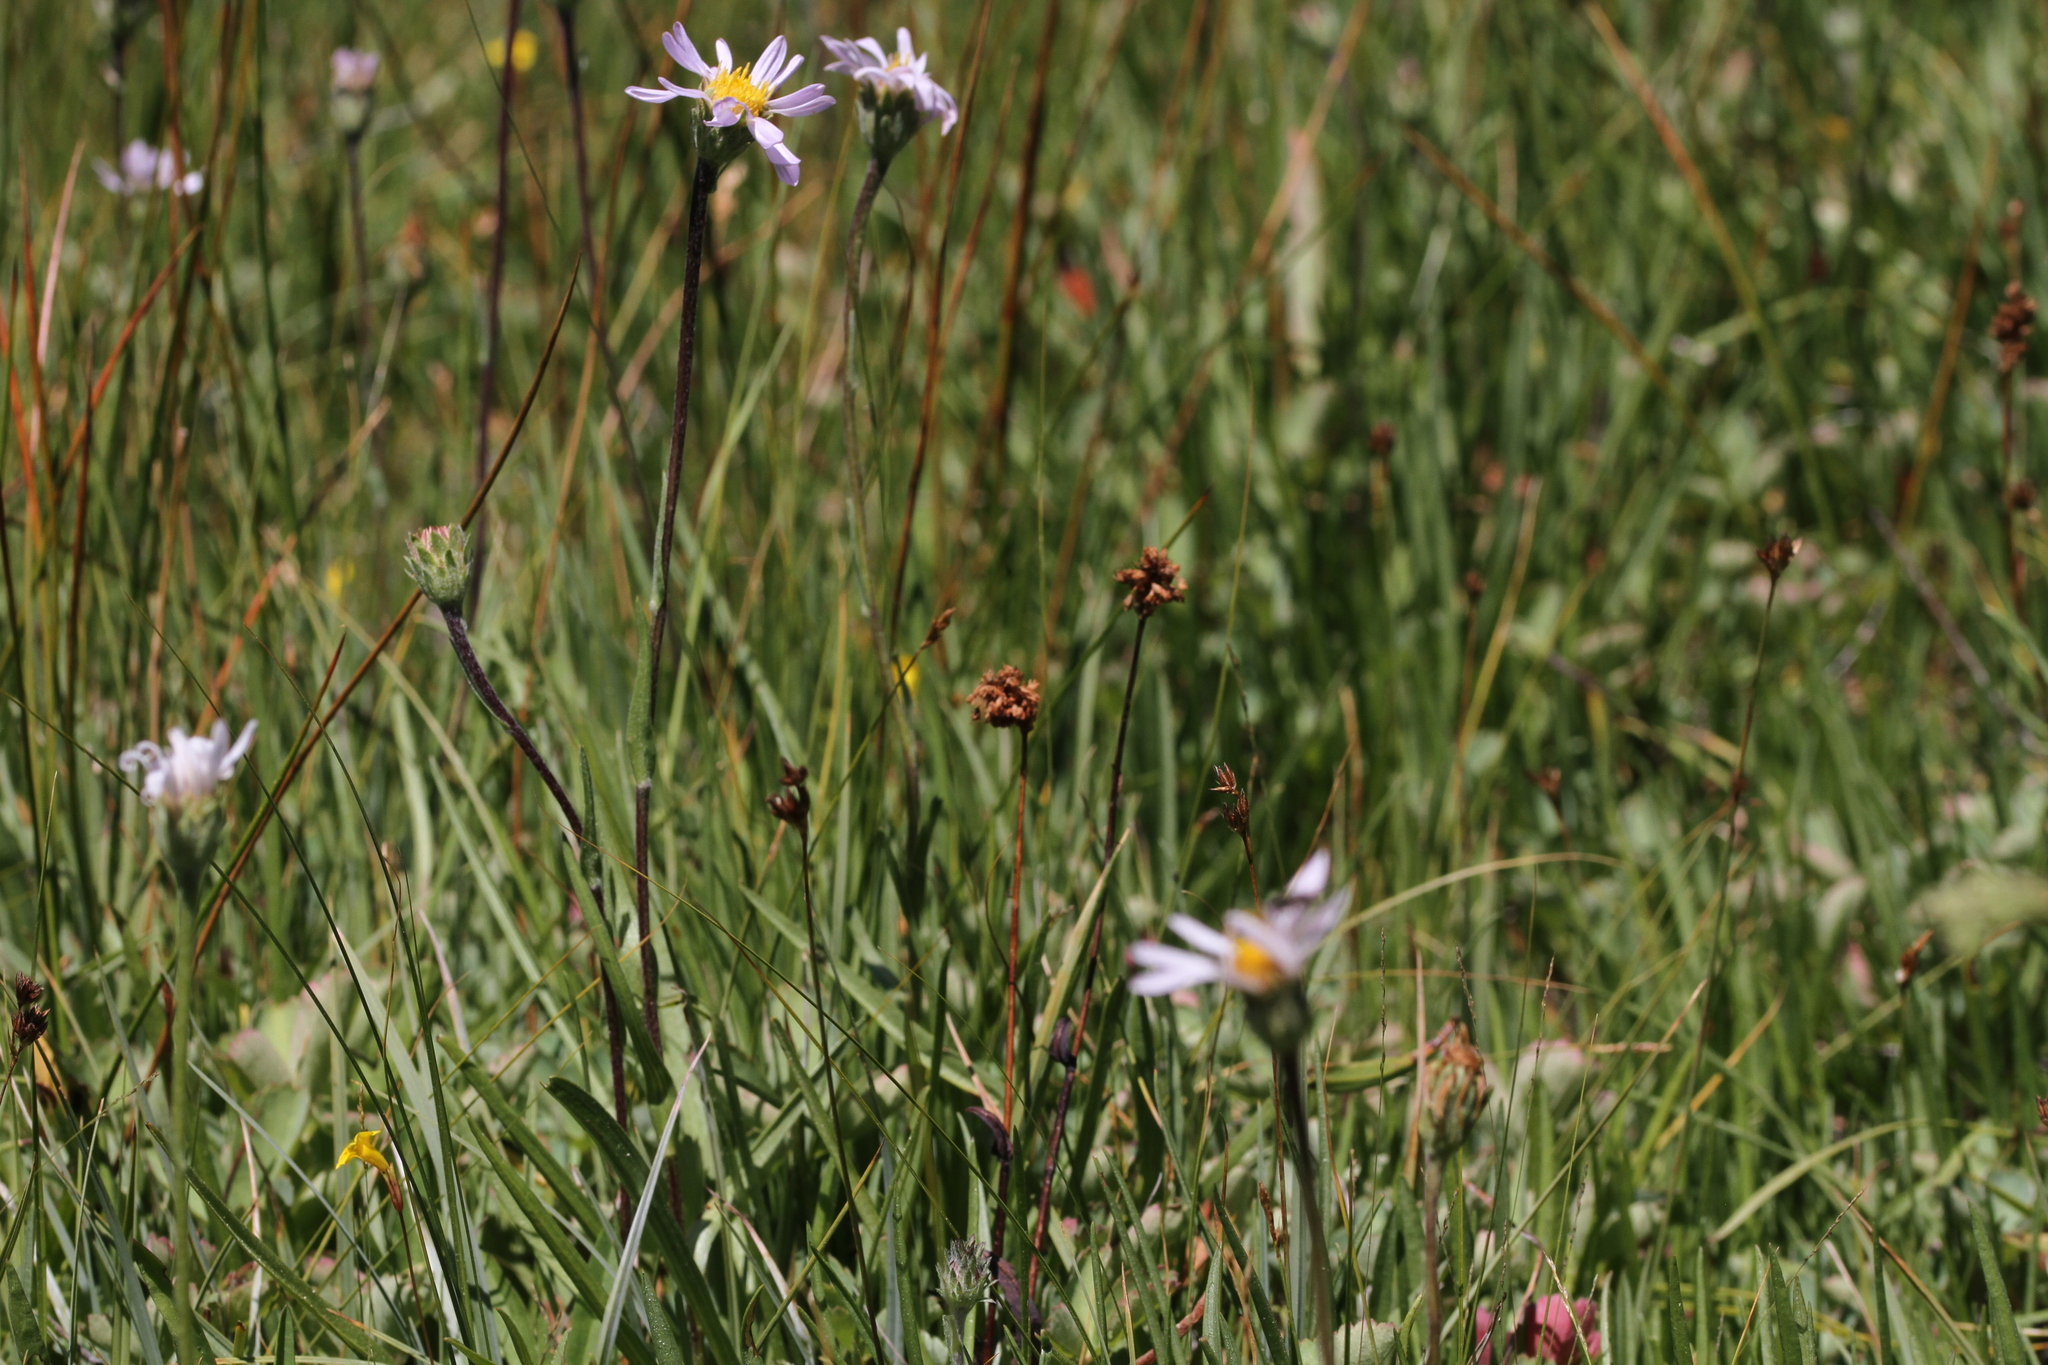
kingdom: Plantae
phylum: Tracheophyta
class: Magnoliopsida
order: Asterales
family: Asteraceae
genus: Oreostemma
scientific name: Oreostemma alpigenum
